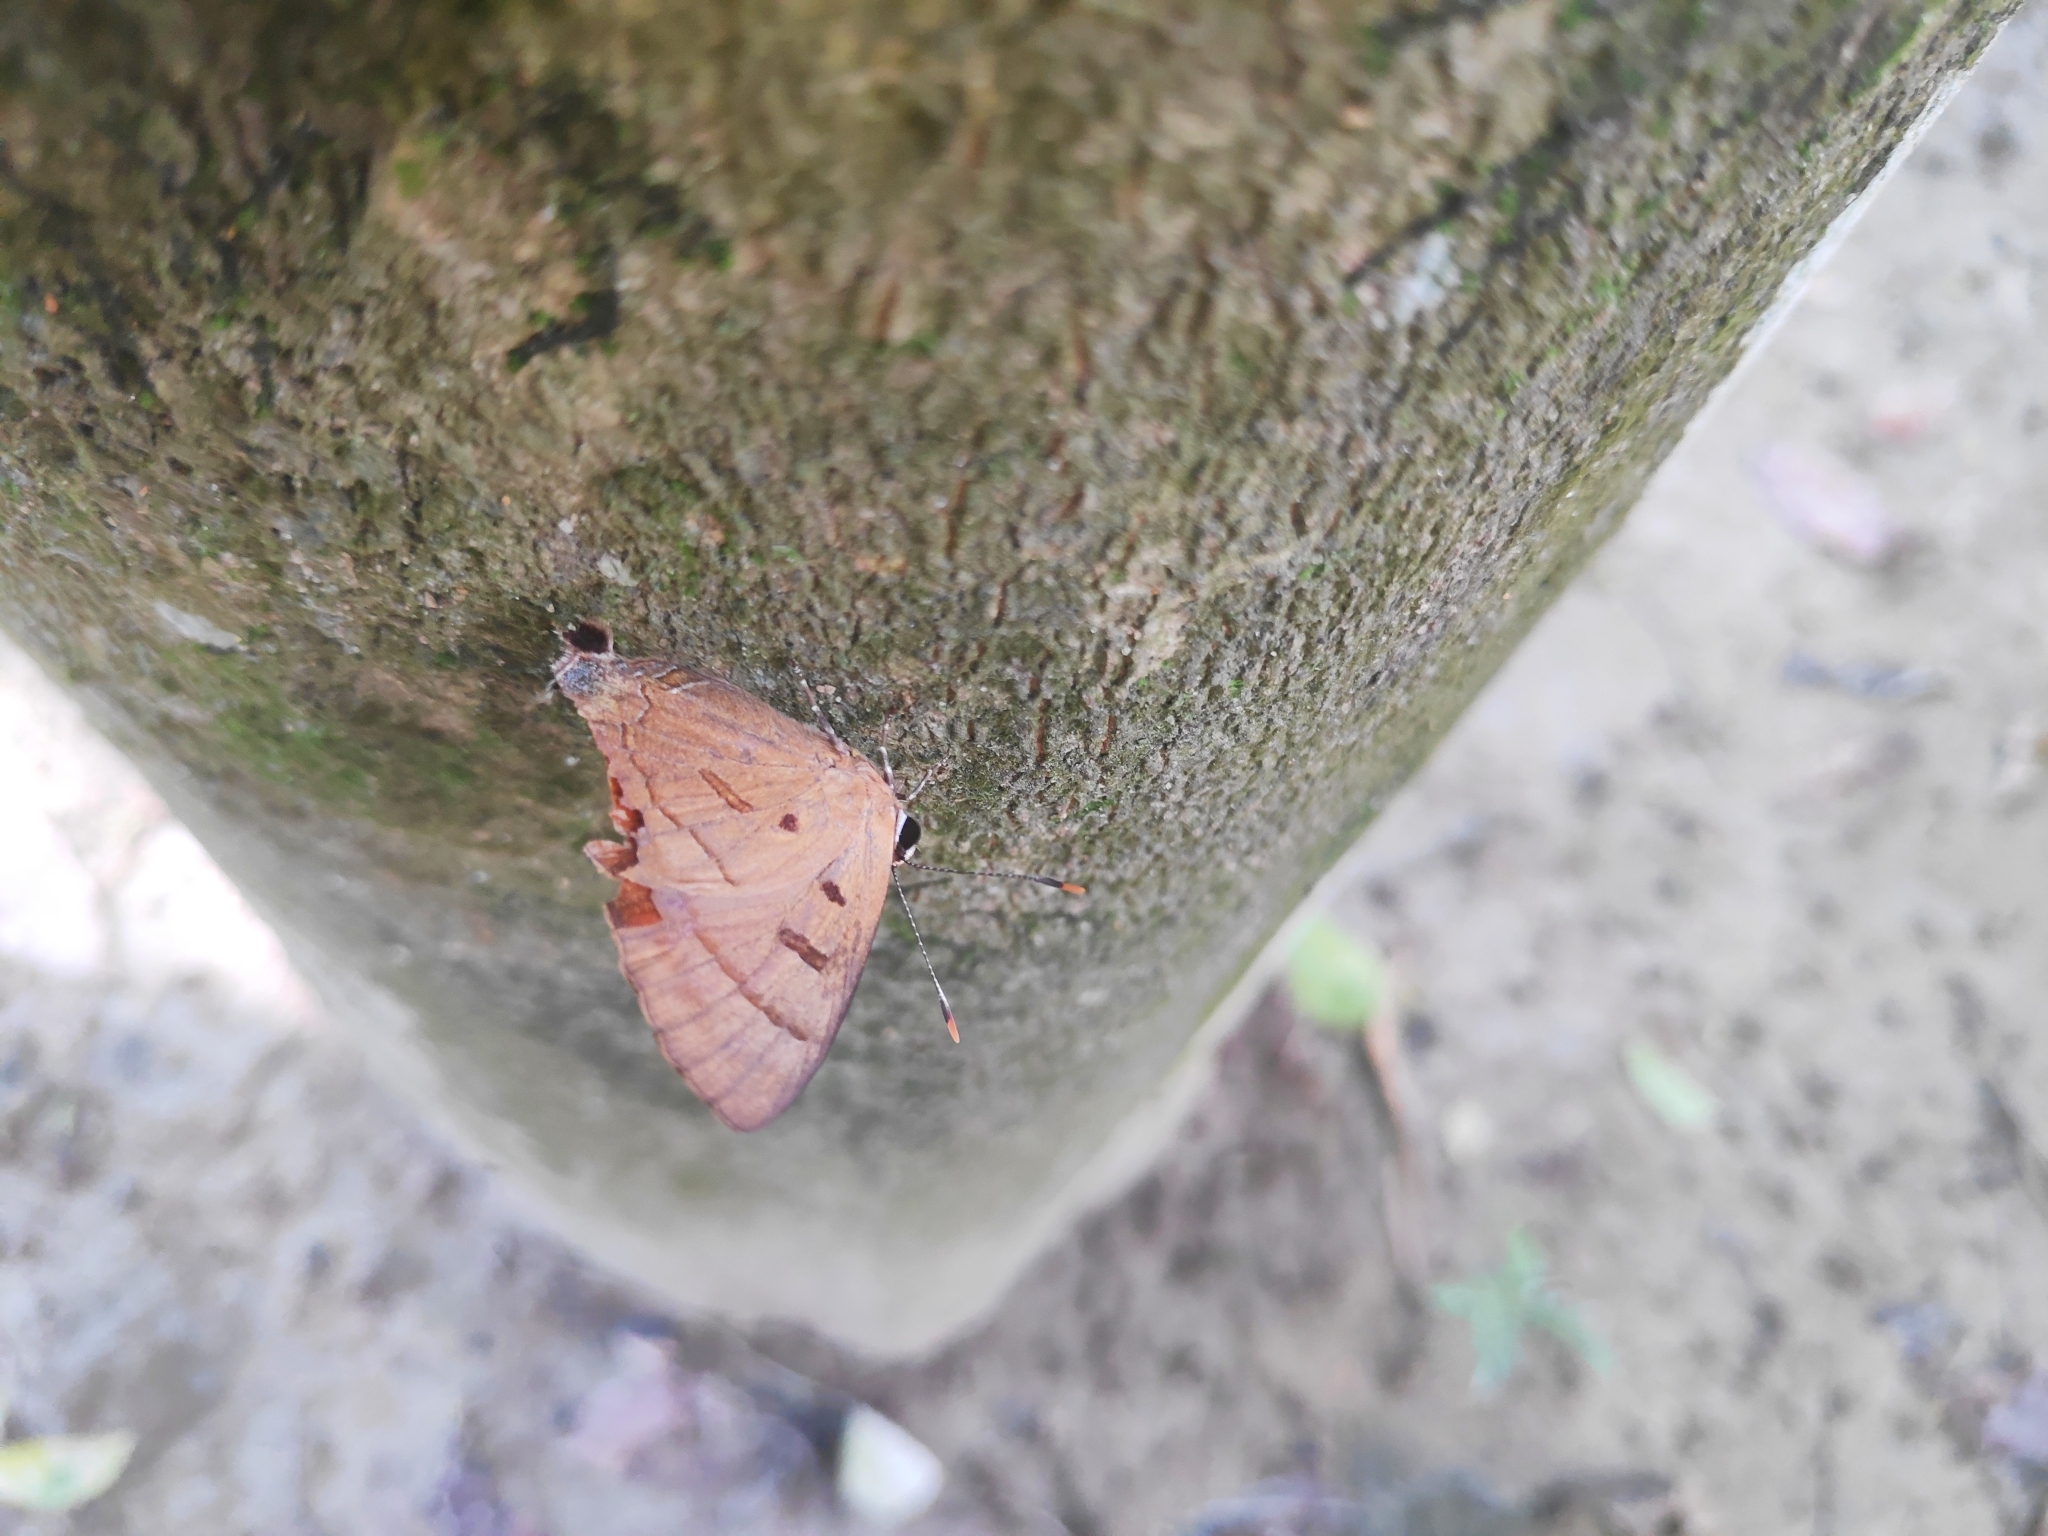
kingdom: Animalia
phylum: Arthropoda
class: Insecta
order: Lepidoptera
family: Lycaenidae
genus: Rapala
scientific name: Rapala pheretima
